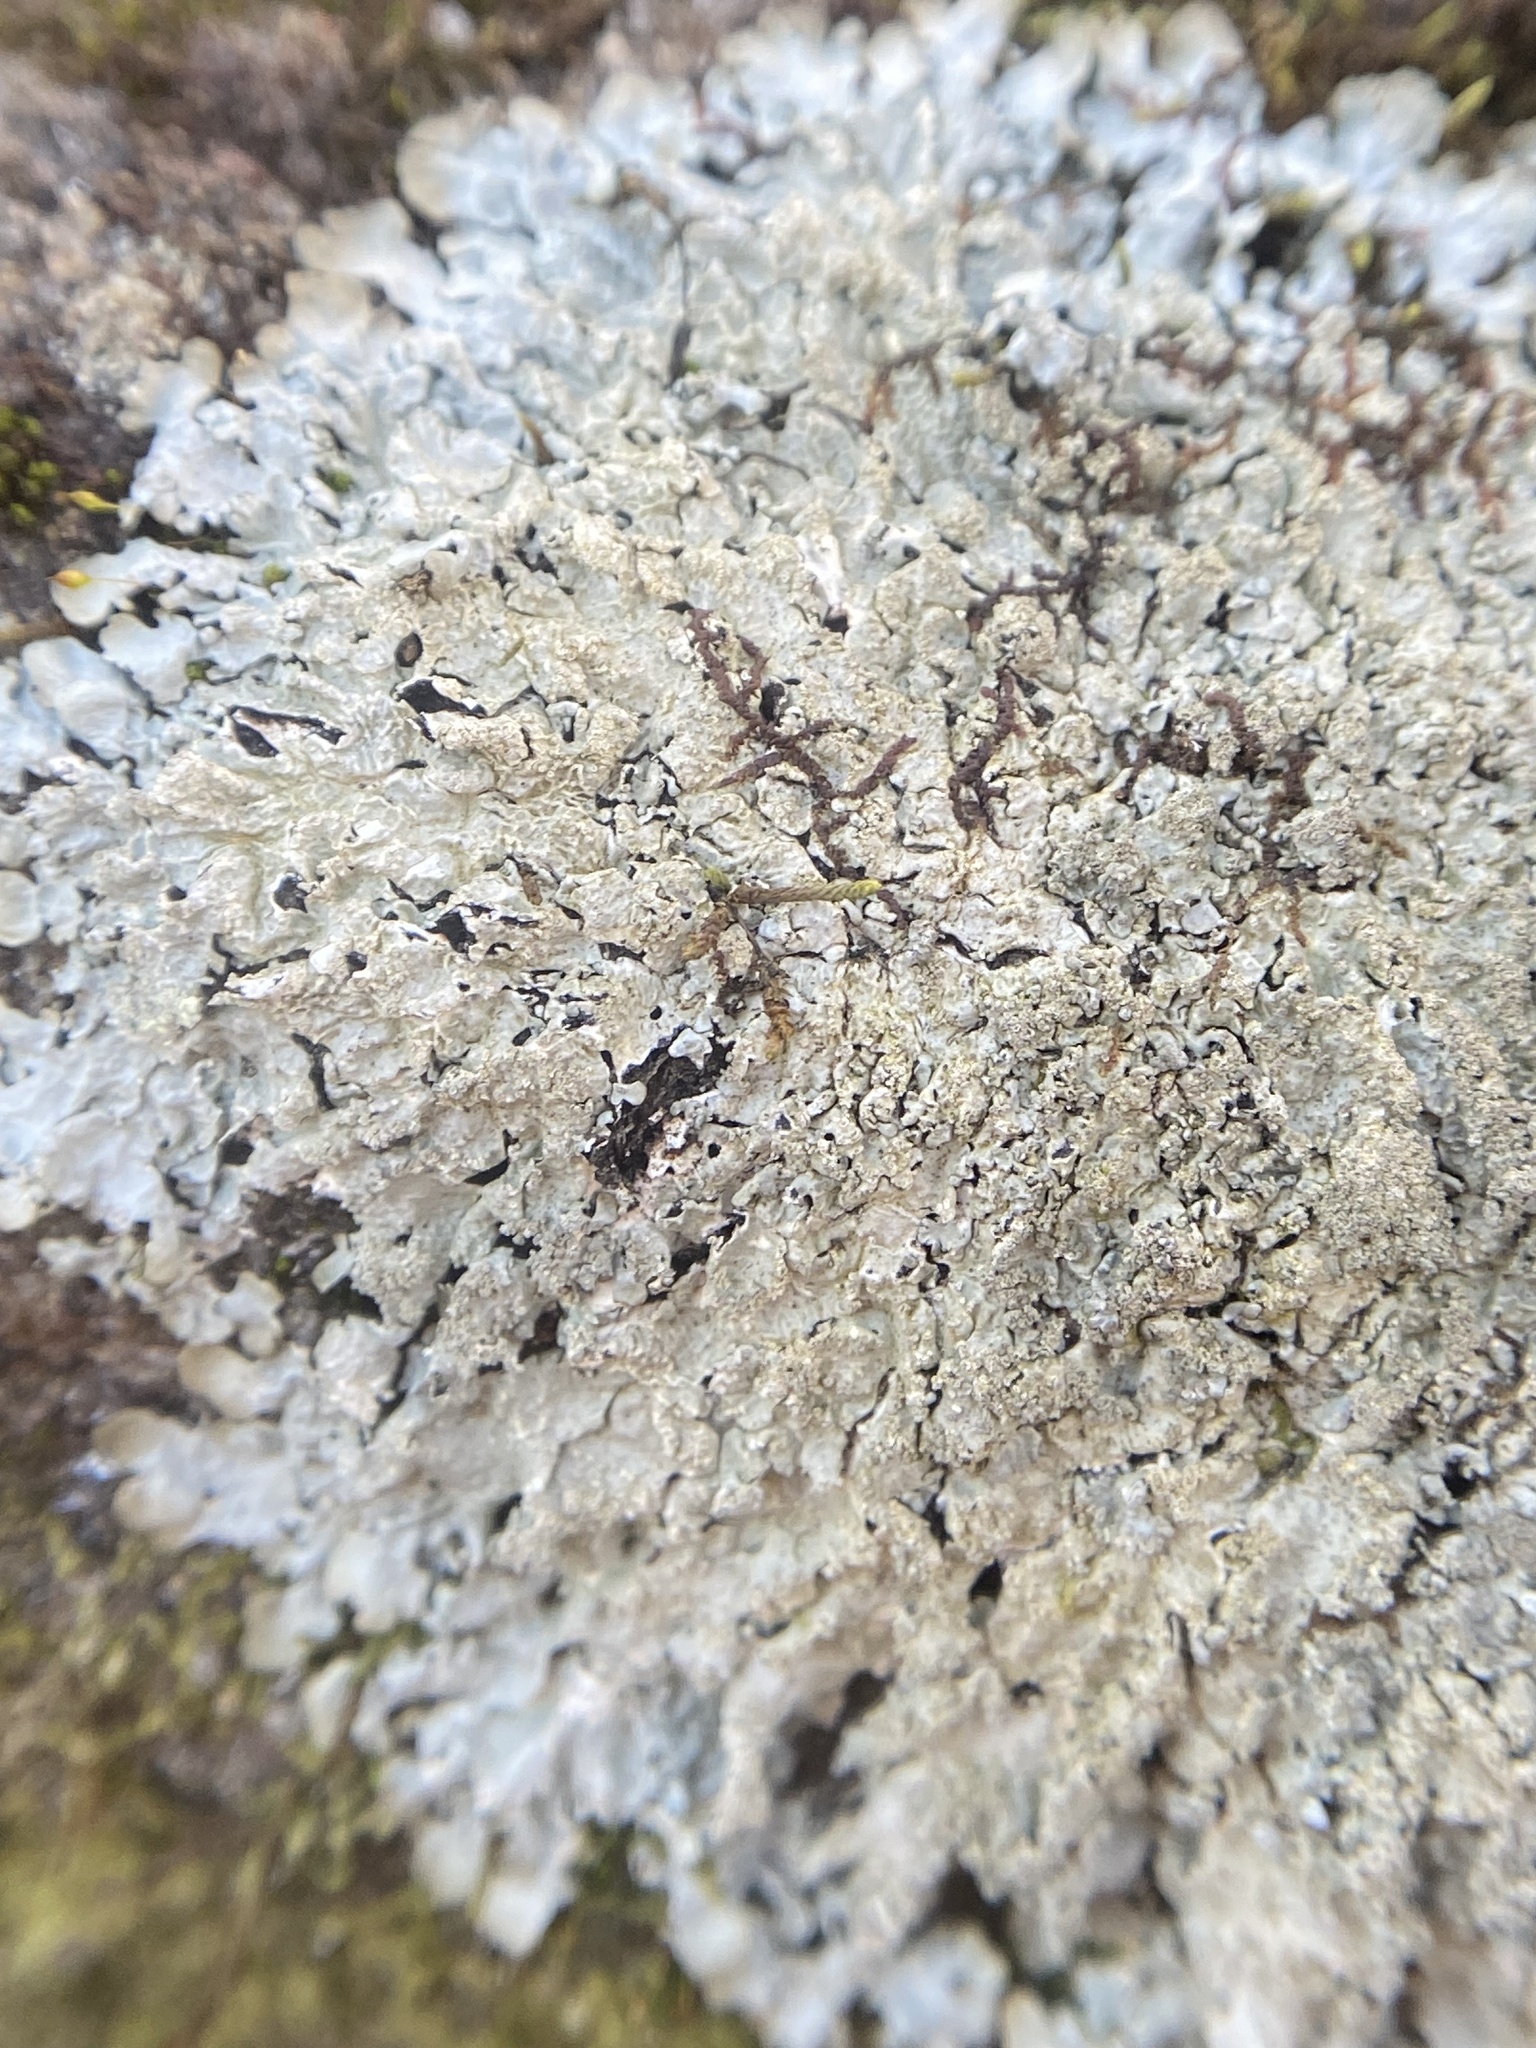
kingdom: Fungi
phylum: Ascomycota
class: Lecanoromycetes
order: Lecanorales
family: Parmeliaceae
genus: Myelochroa
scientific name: Myelochroa aurulenta
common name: Powdery axil-bristle lichen
